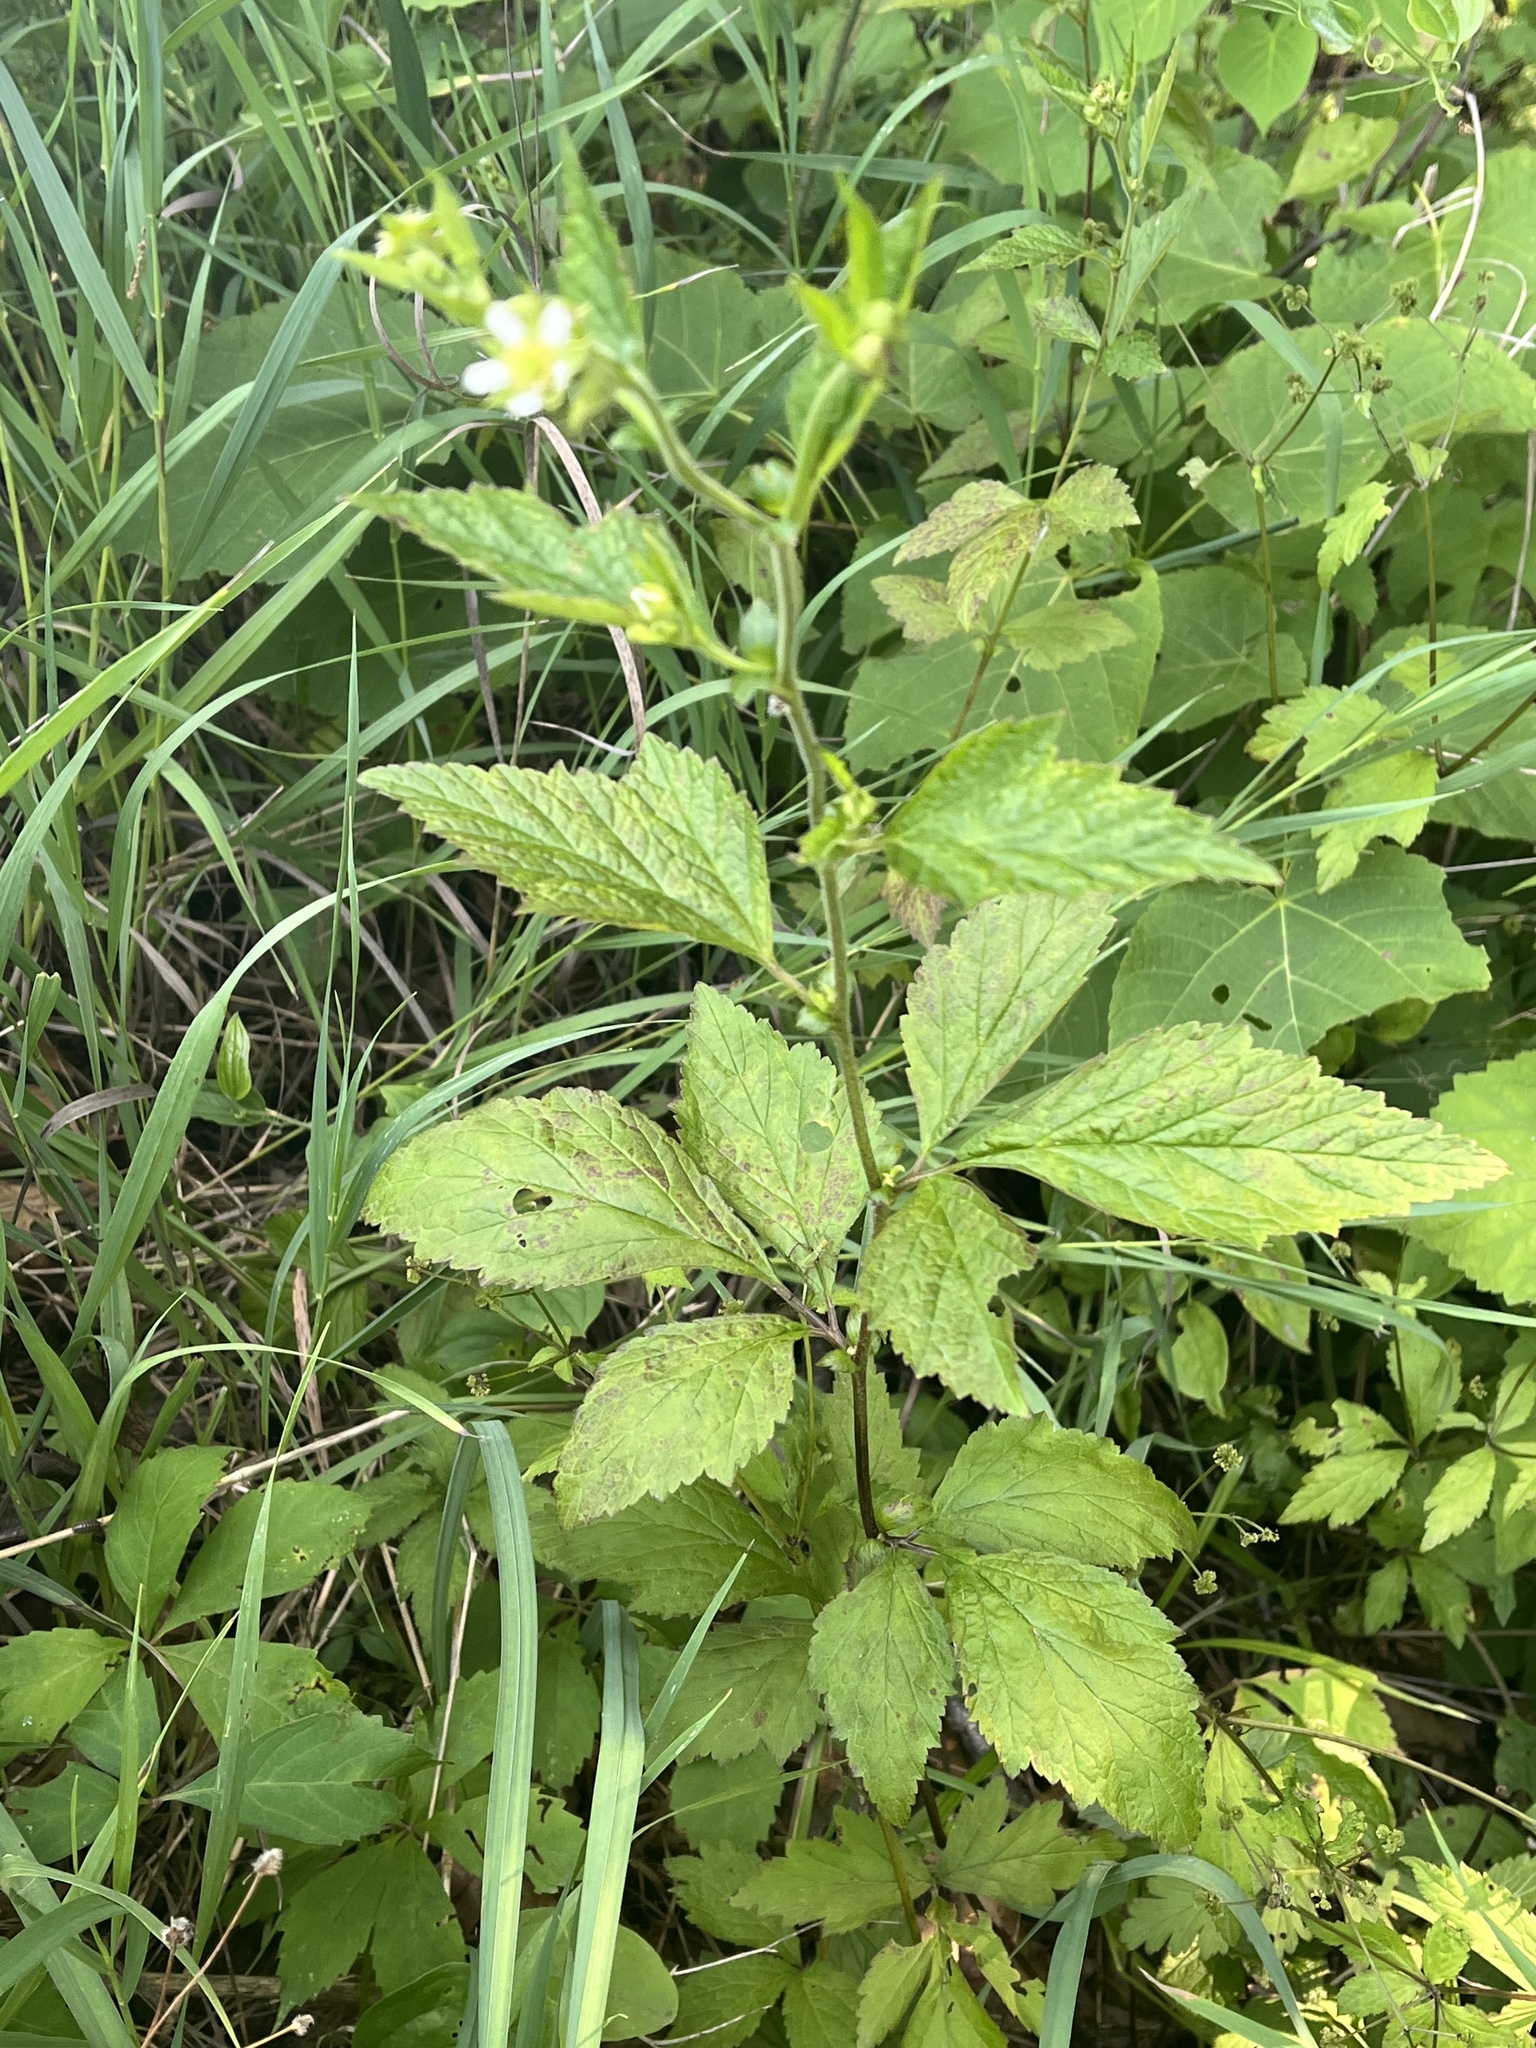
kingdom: Plantae
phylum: Tracheophyta
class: Magnoliopsida
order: Rosales
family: Rosaceae
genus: Geum
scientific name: Geum laciniatum
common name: Rough avens
